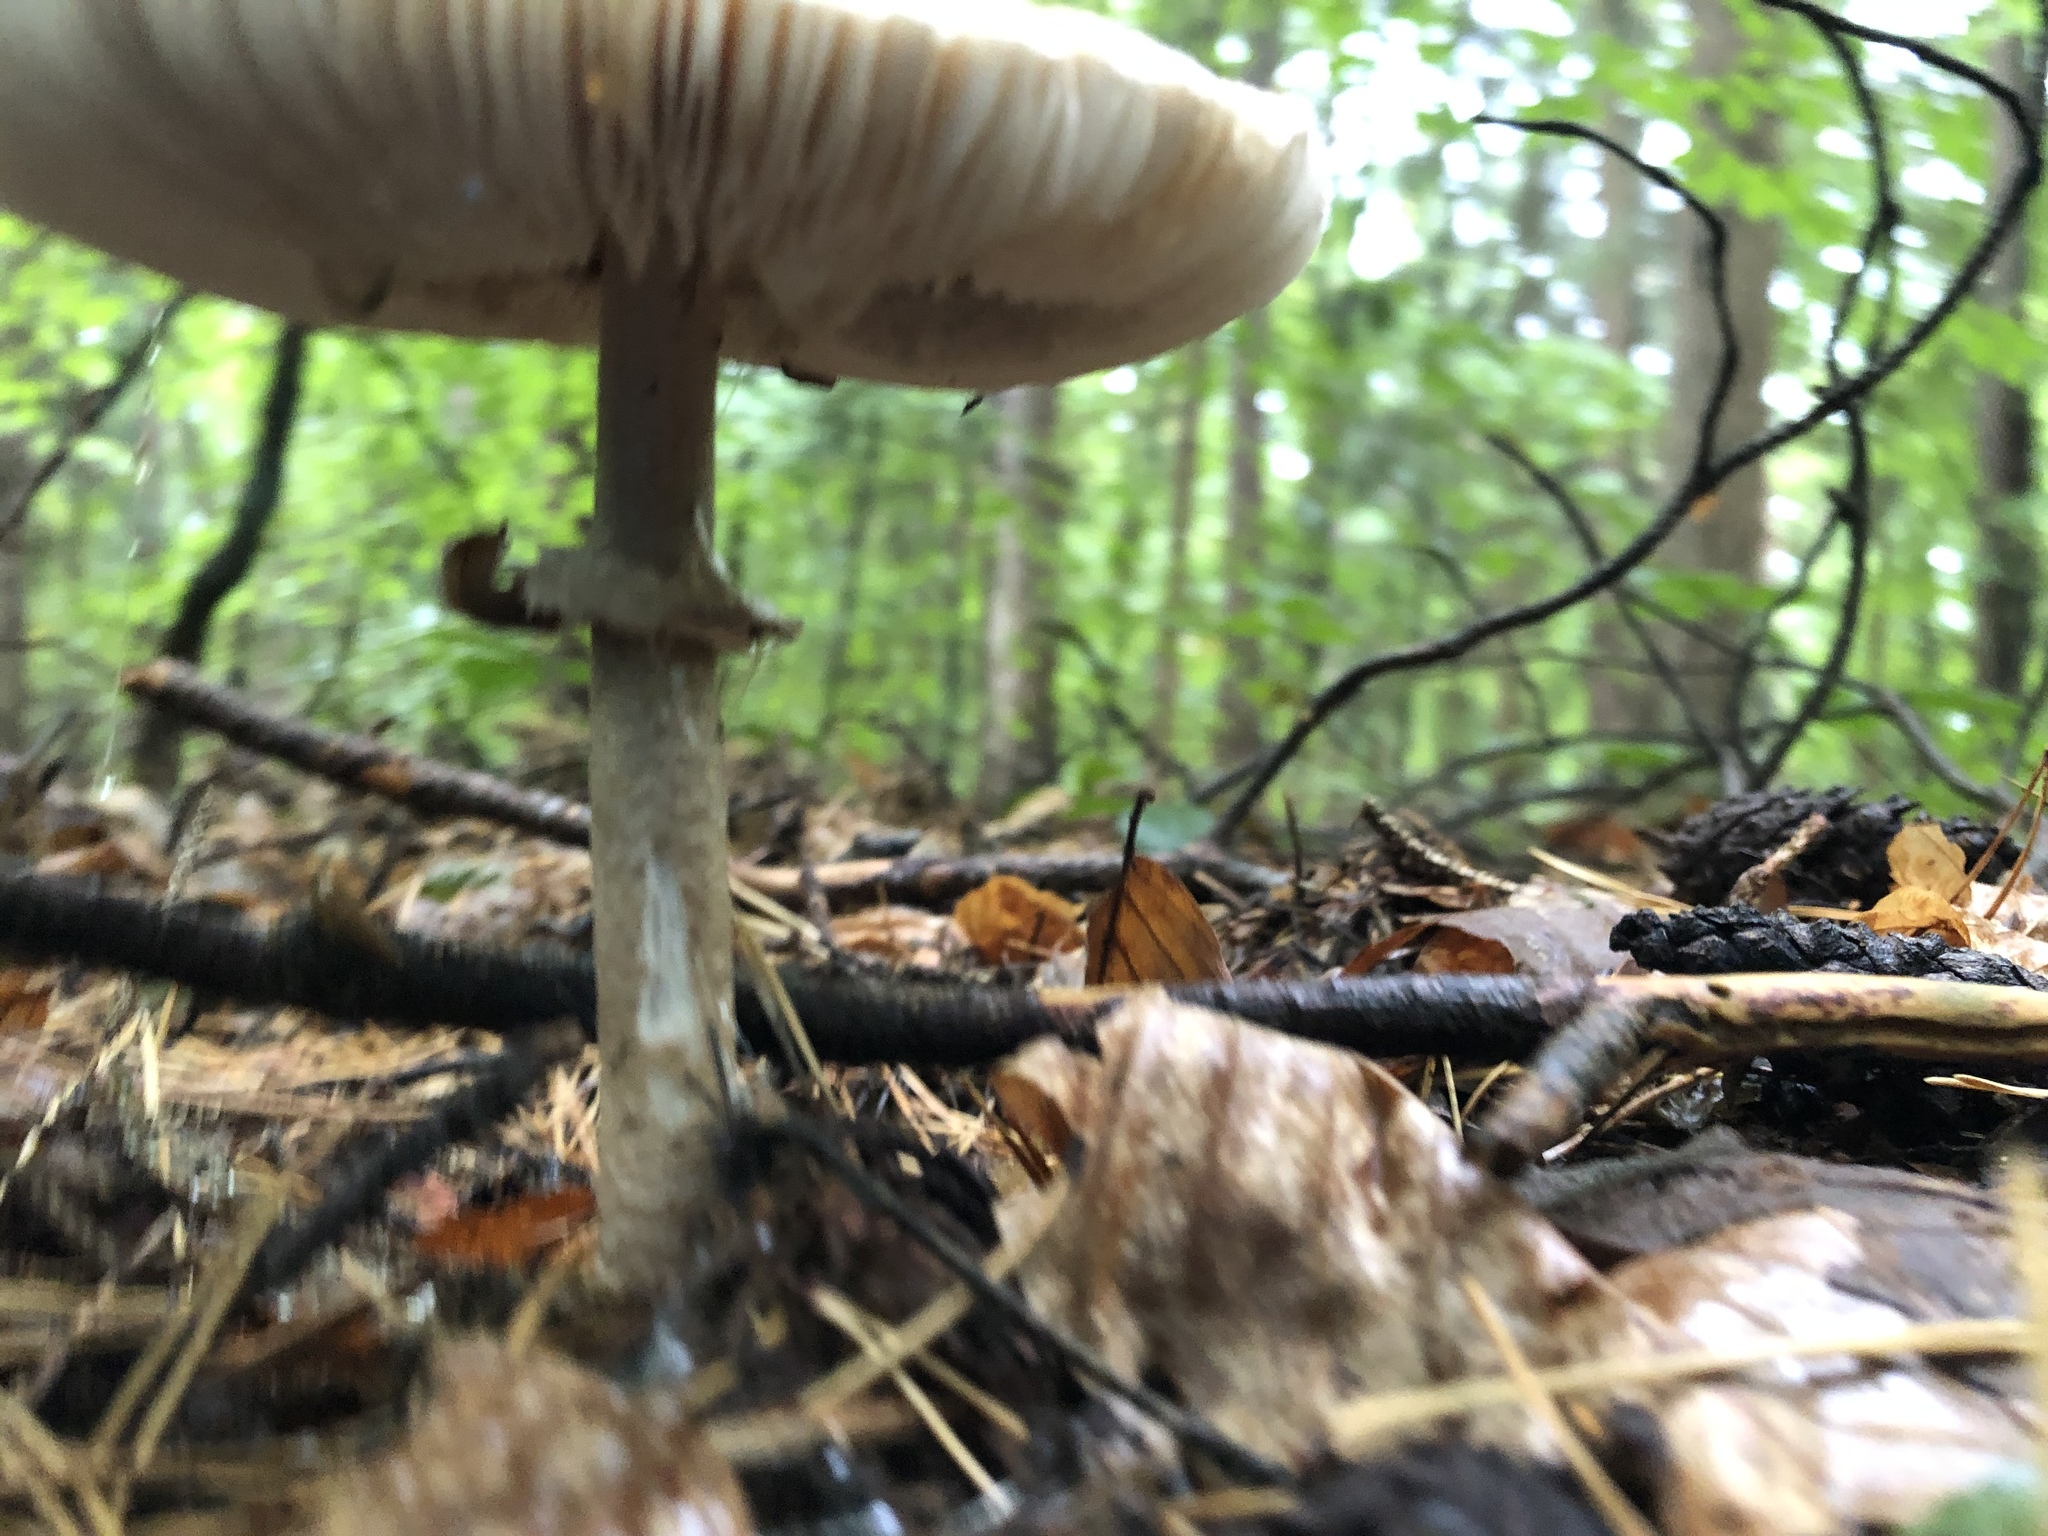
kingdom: Fungi
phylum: Basidiomycota
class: Agaricomycetes
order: Agaricales
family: Agaricaceae
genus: Macrolepiota
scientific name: Macrolepiota procera
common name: Parasol
